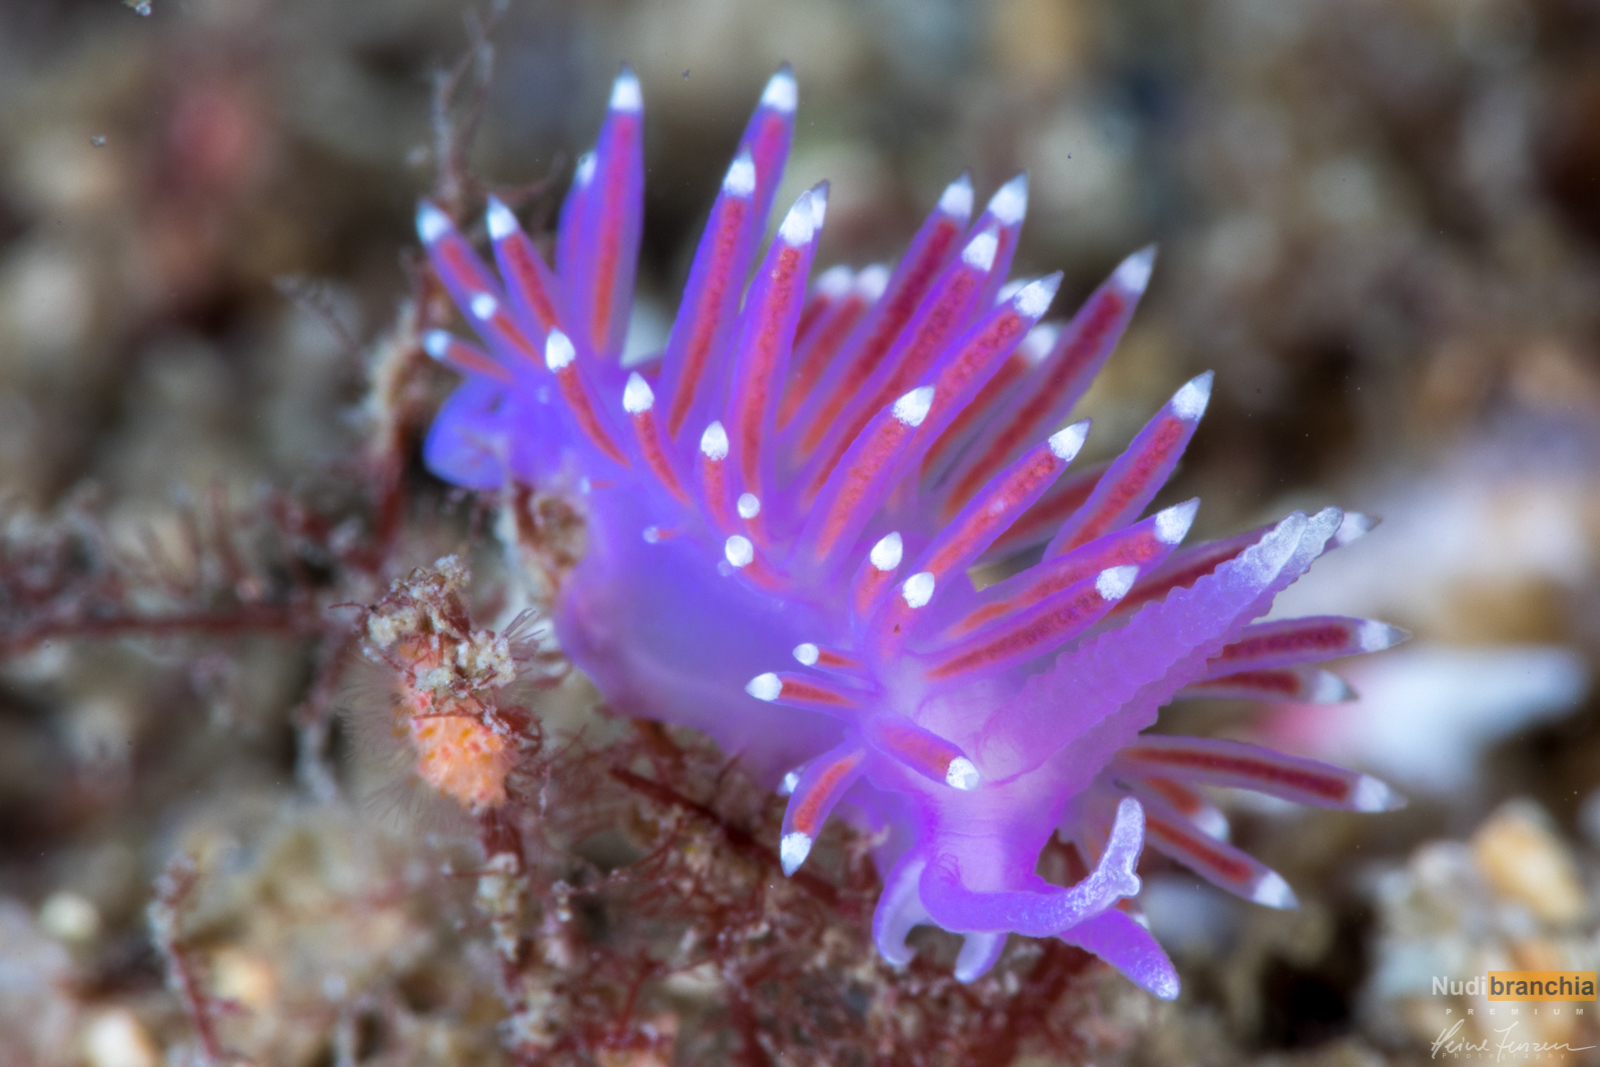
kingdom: Animalia
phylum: Mollusca
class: Gastropoda
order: Nudibranchia
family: Flabellinidae
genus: Edmundsella
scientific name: Edmundsella pedata
